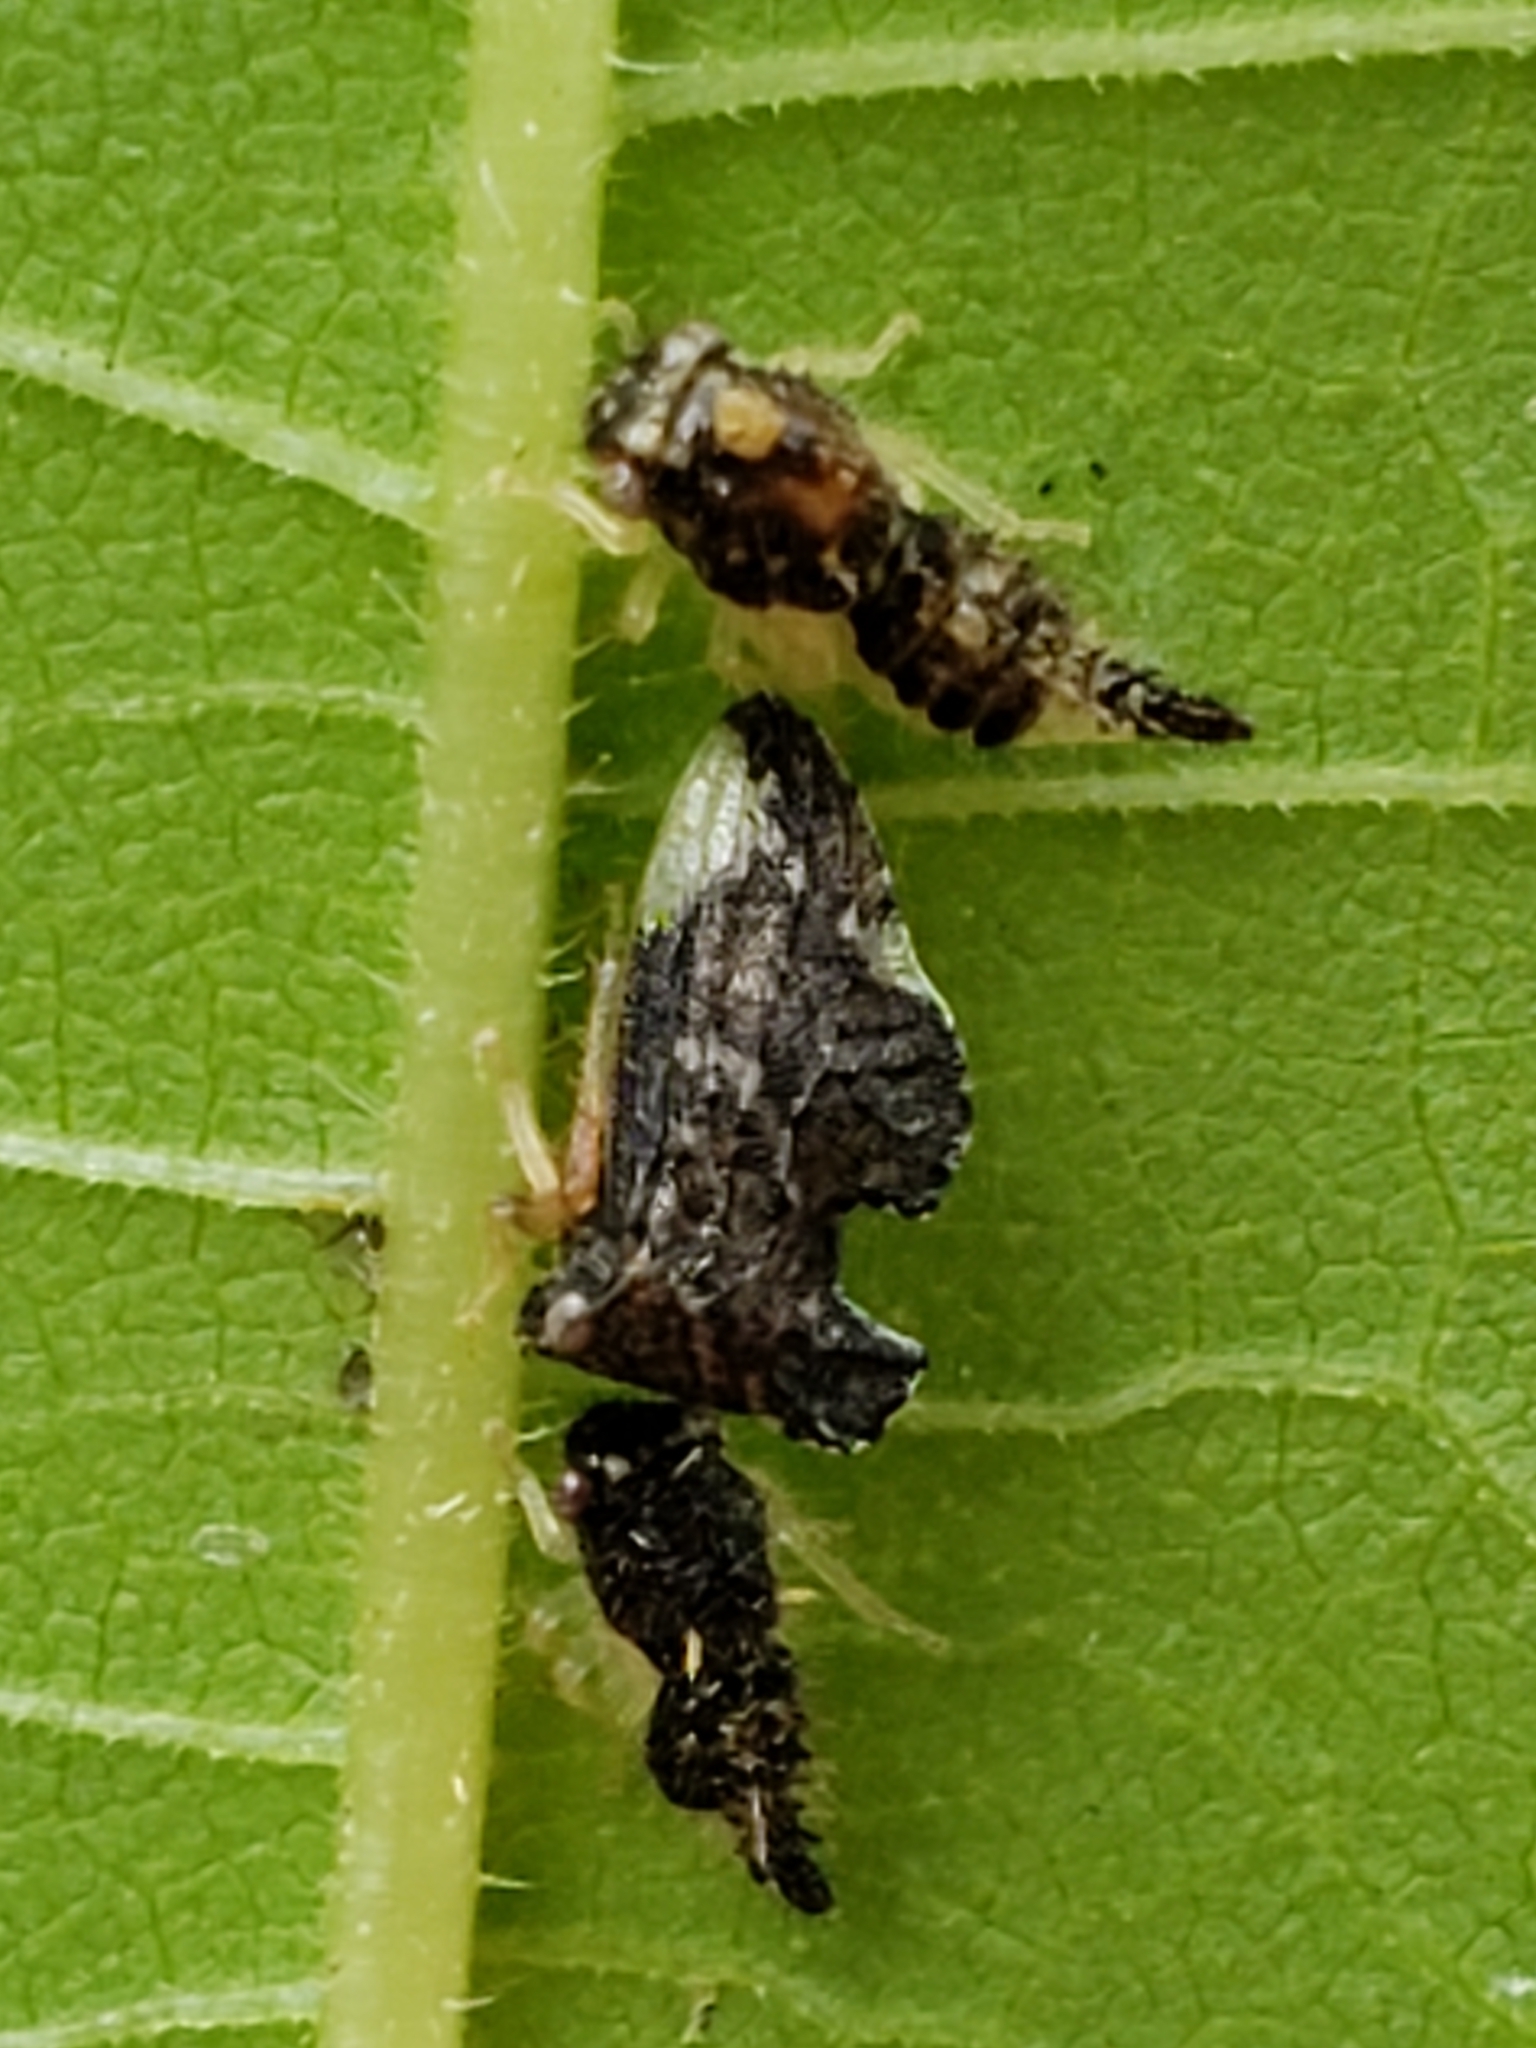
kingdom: Animalia
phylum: Arthropoda
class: Insecta
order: Hemiptera
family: Membracidae
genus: Entylia
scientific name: Entylia carinata
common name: Keeled treehopper
